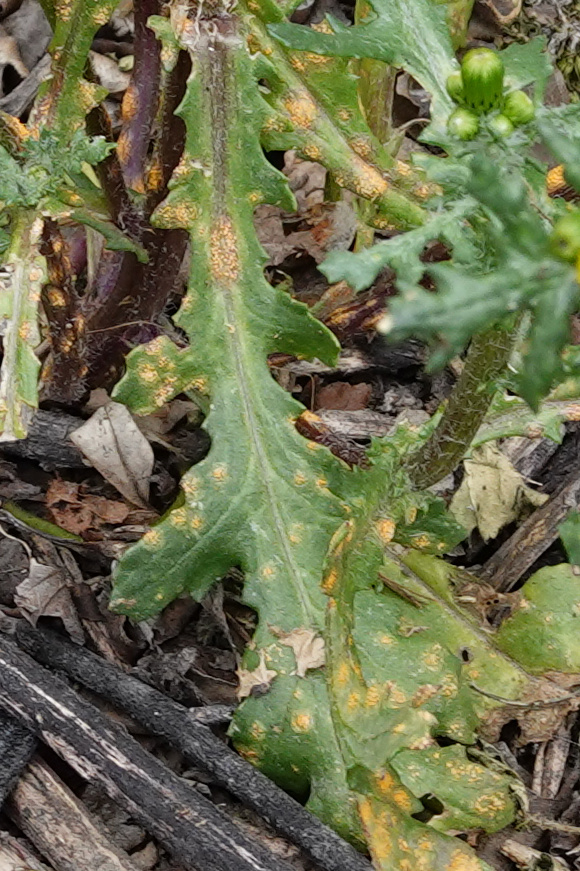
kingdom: Fungi
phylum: Basidiomycota
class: Pucciniomycetes
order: Pucciniales
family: Pucciniaceae
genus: Puccinia
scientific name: Puccinia lagenophorae
